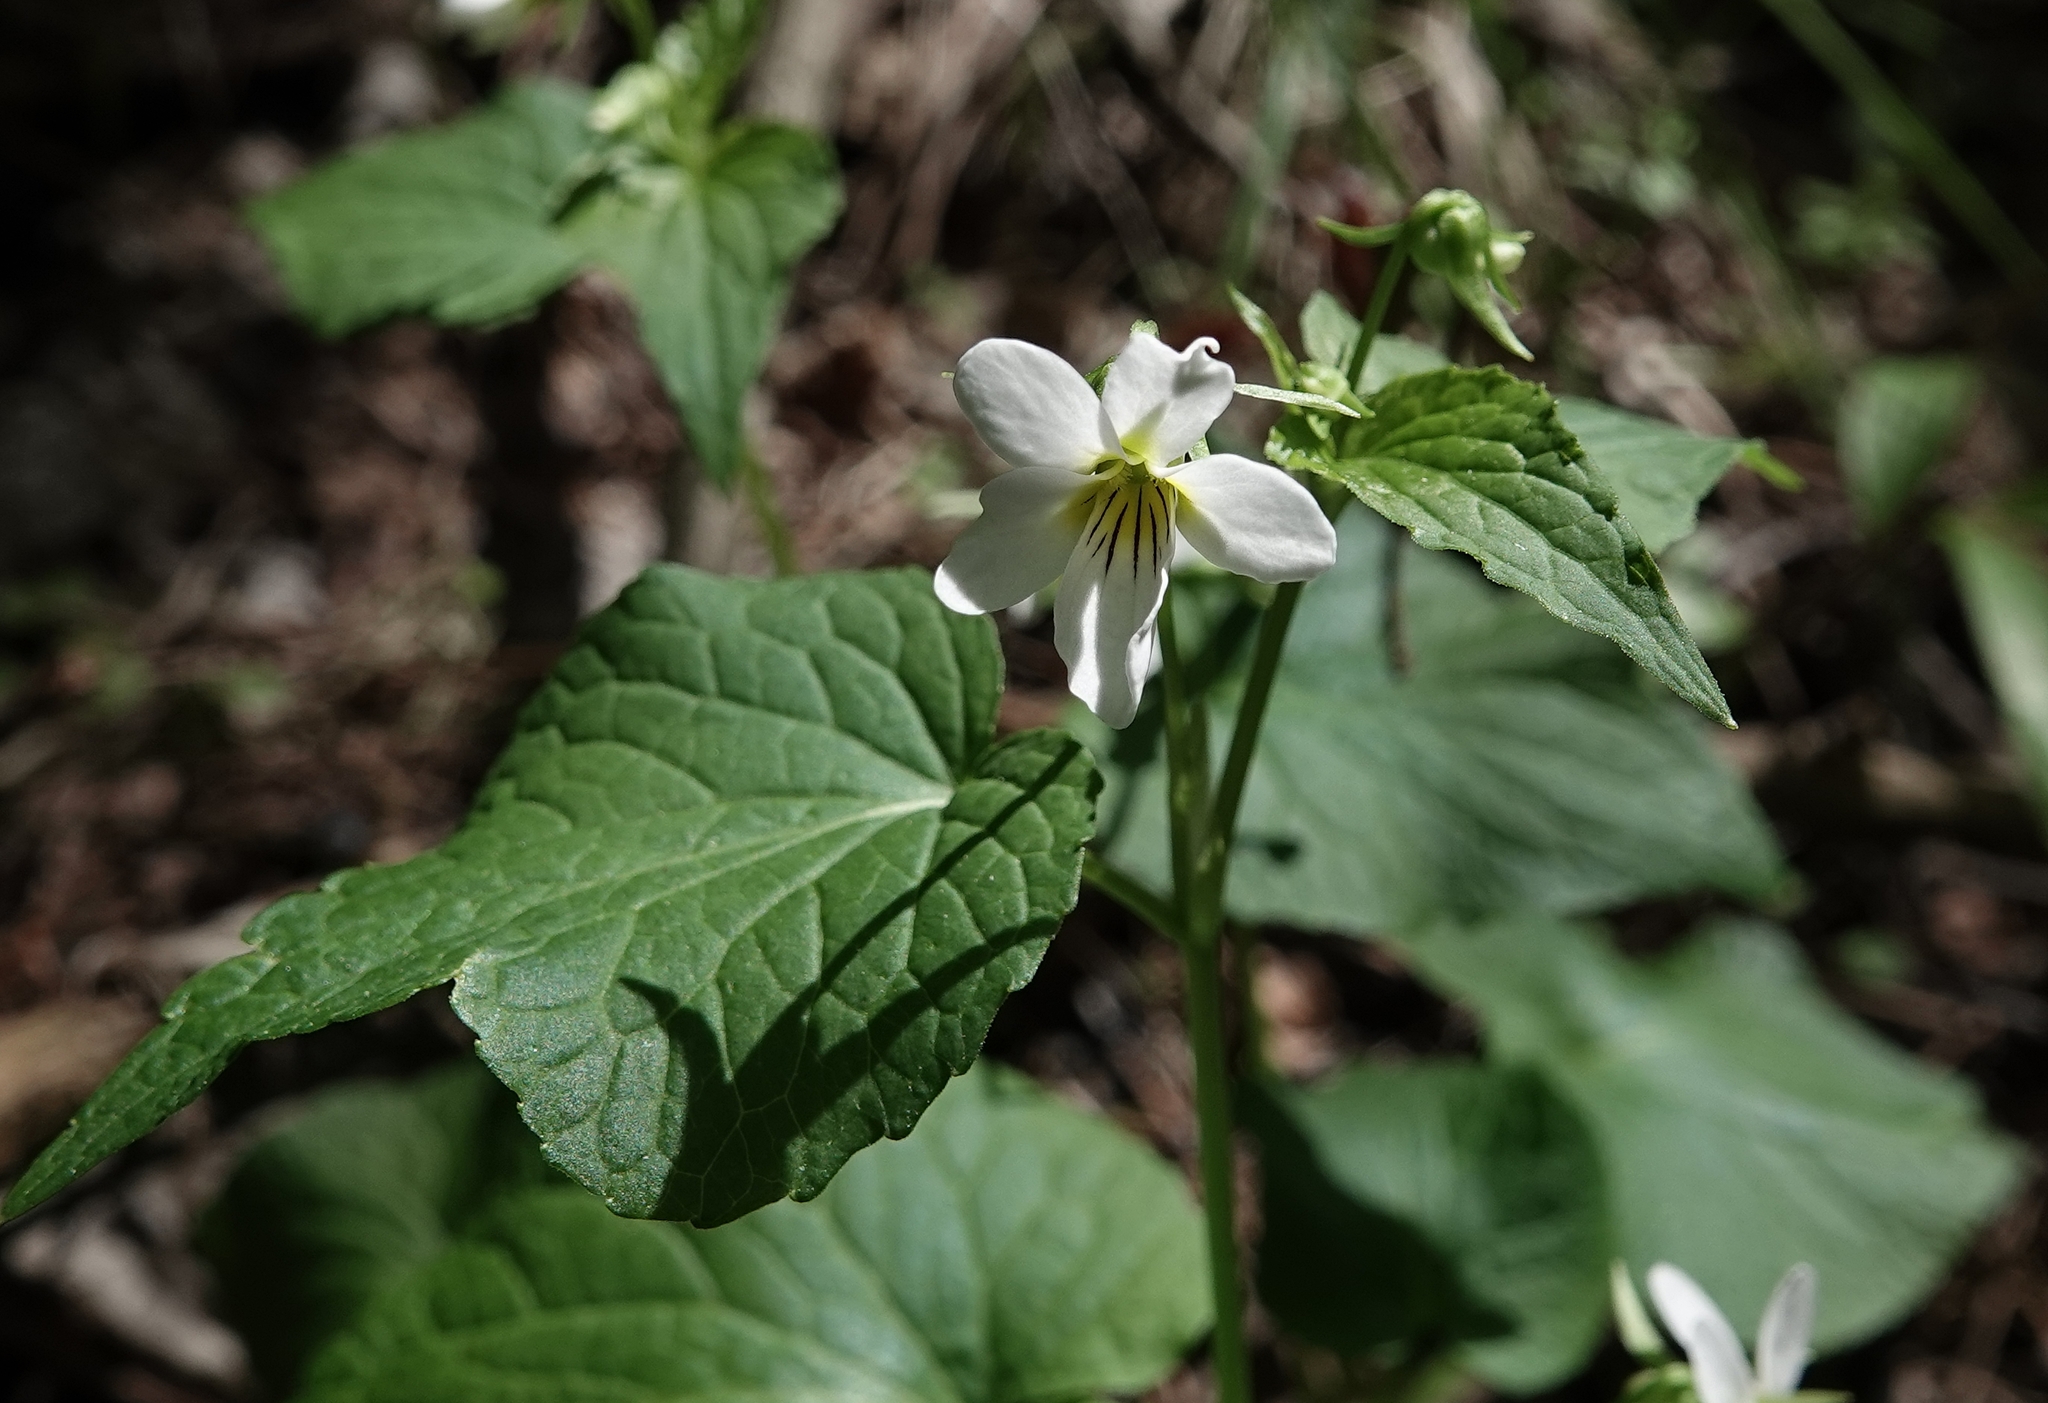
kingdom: Plantae
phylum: Tracheophyta
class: Magnoliopsida
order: Malpighiales
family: Violaceae
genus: Viola
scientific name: Viola canadensis
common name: Canada violet
